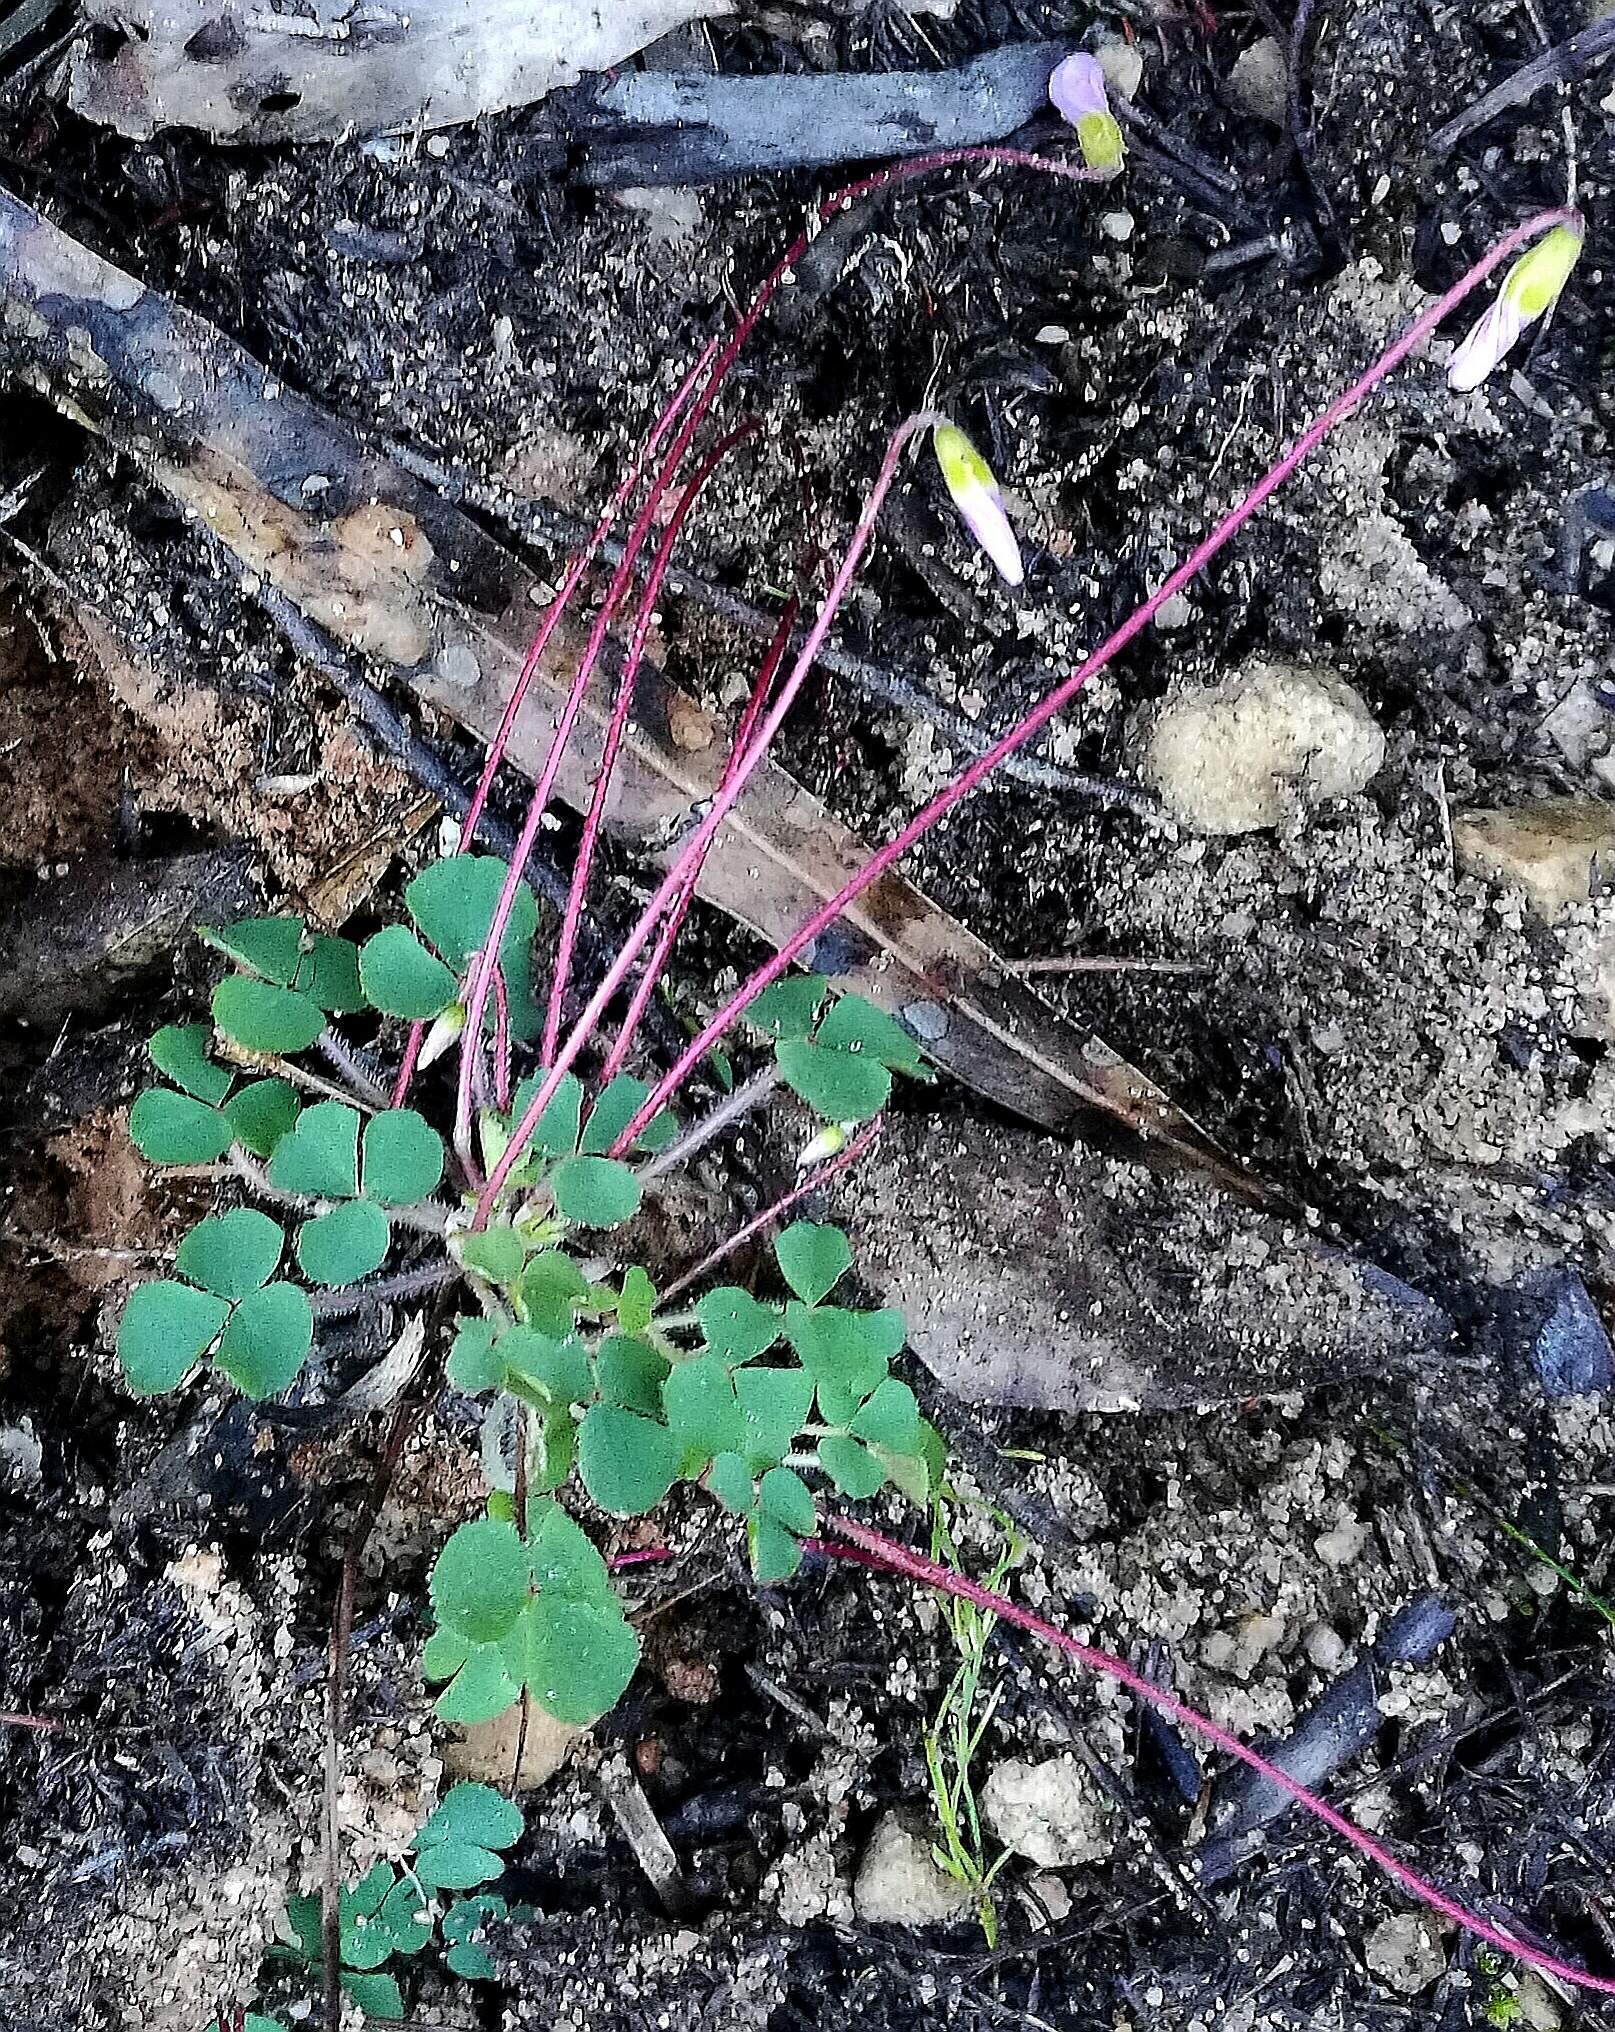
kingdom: Plantae
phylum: Tracheophyta
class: Magnoliopsida
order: Oxalidales
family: Oxalidaceae
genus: Oxalis
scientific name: Oxalis imbricata
